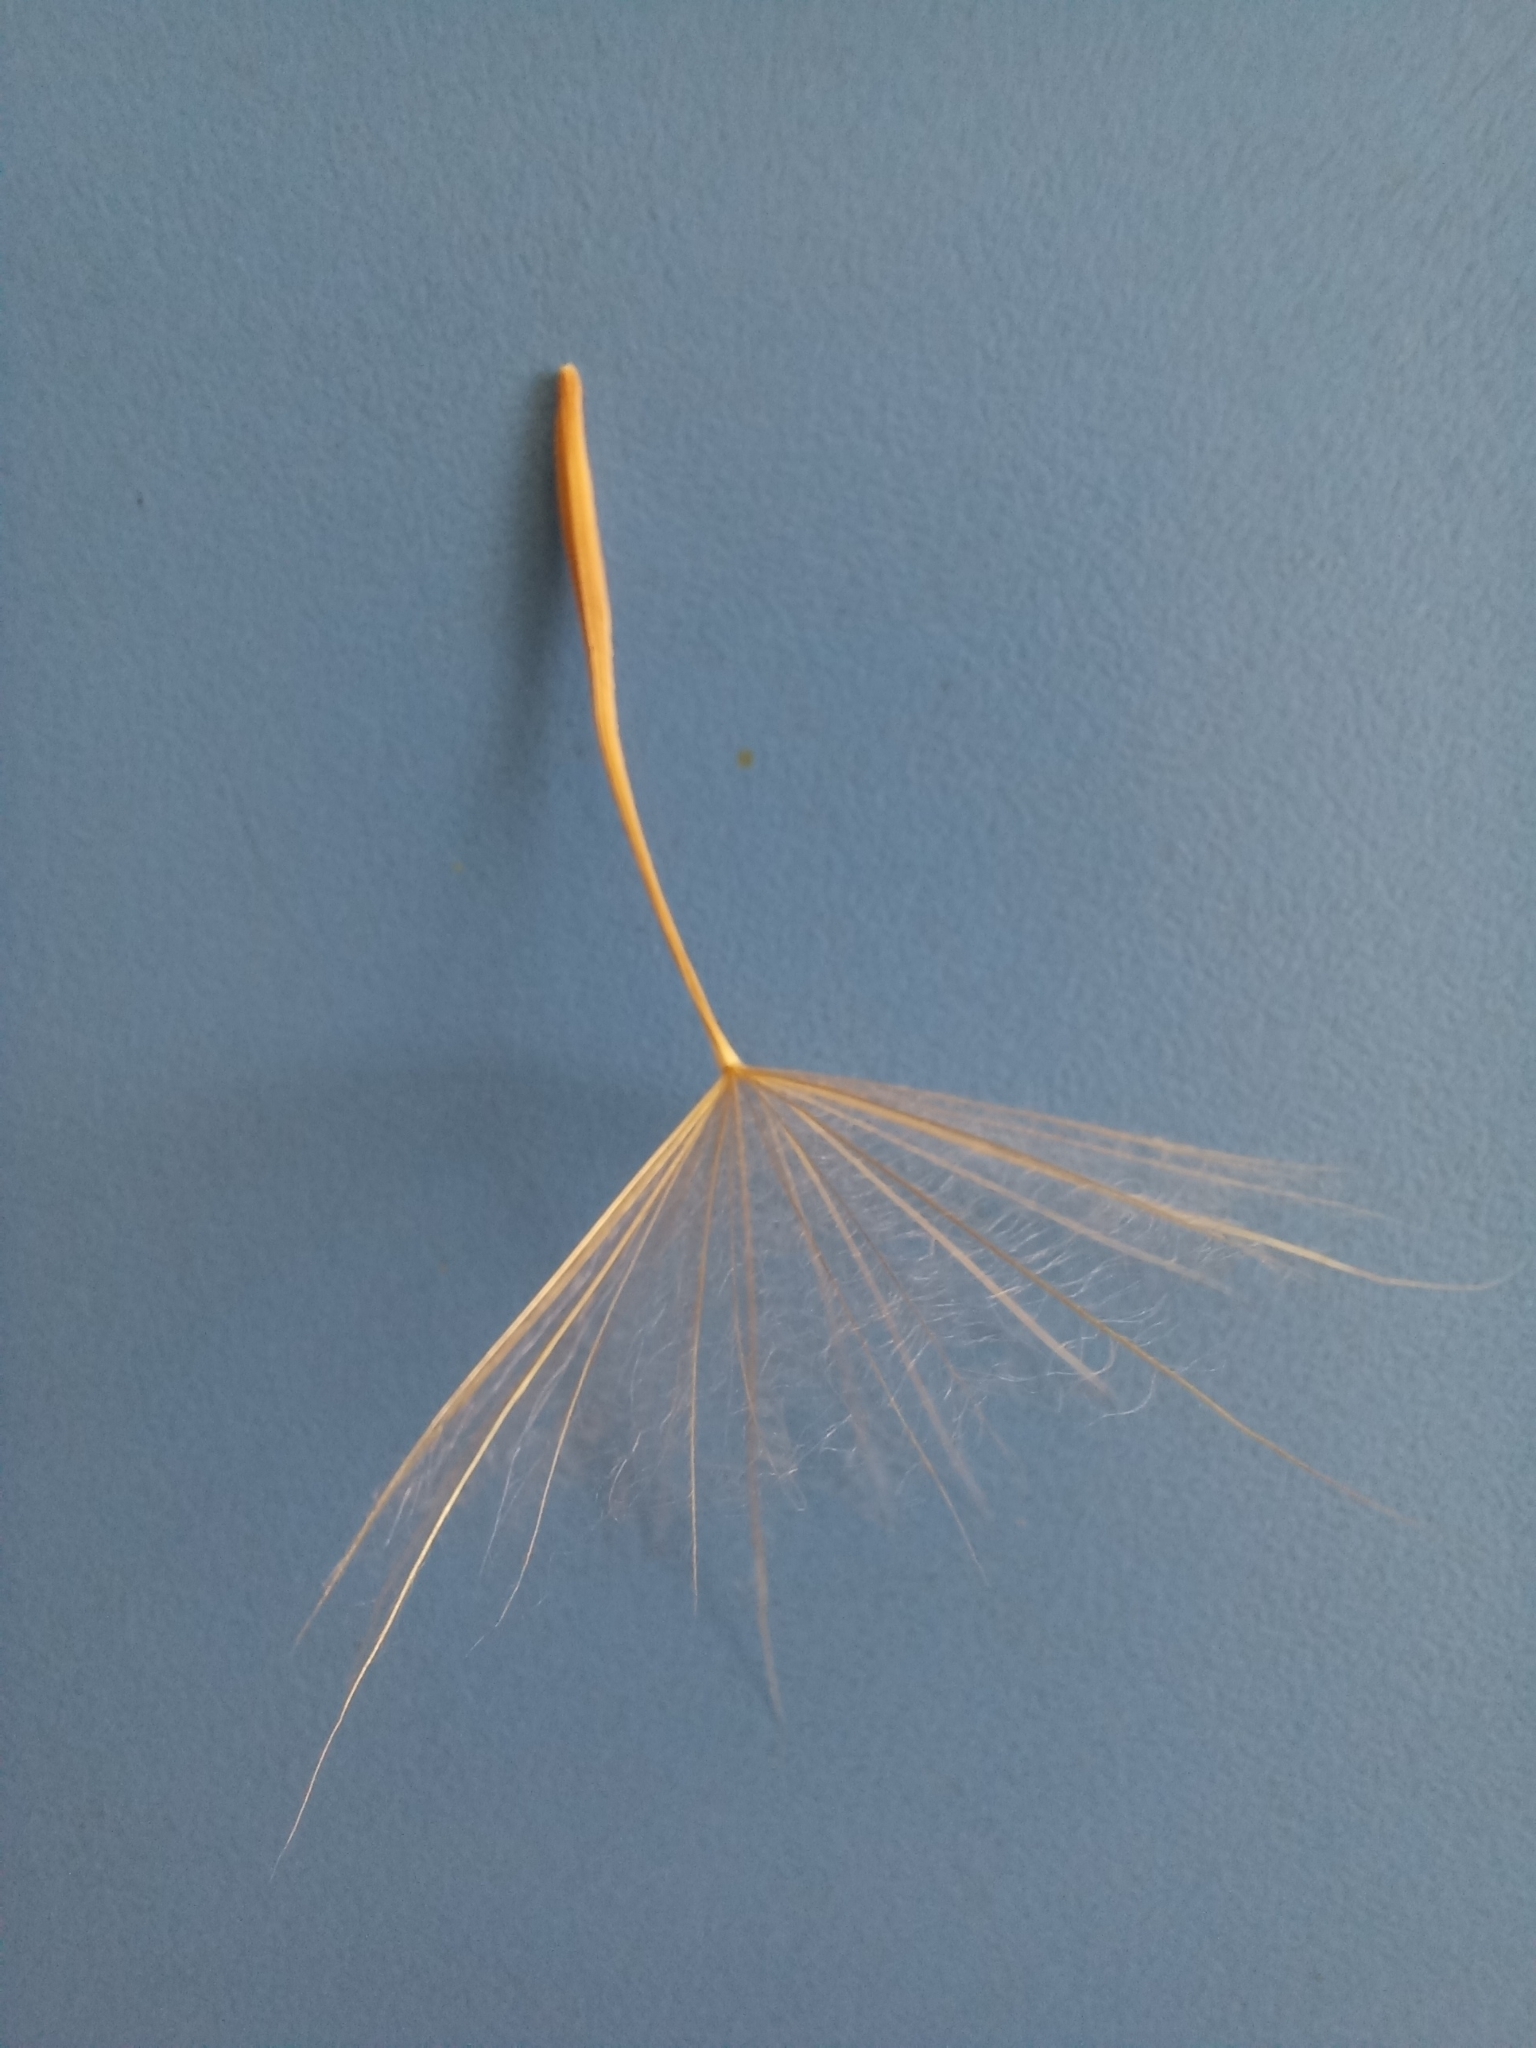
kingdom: Plantae
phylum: Tracheophyta
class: Magnoliopsida
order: Asterales
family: Asteraceae
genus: Tragopogon
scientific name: Tragopogon dubius
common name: Yellow salsify
